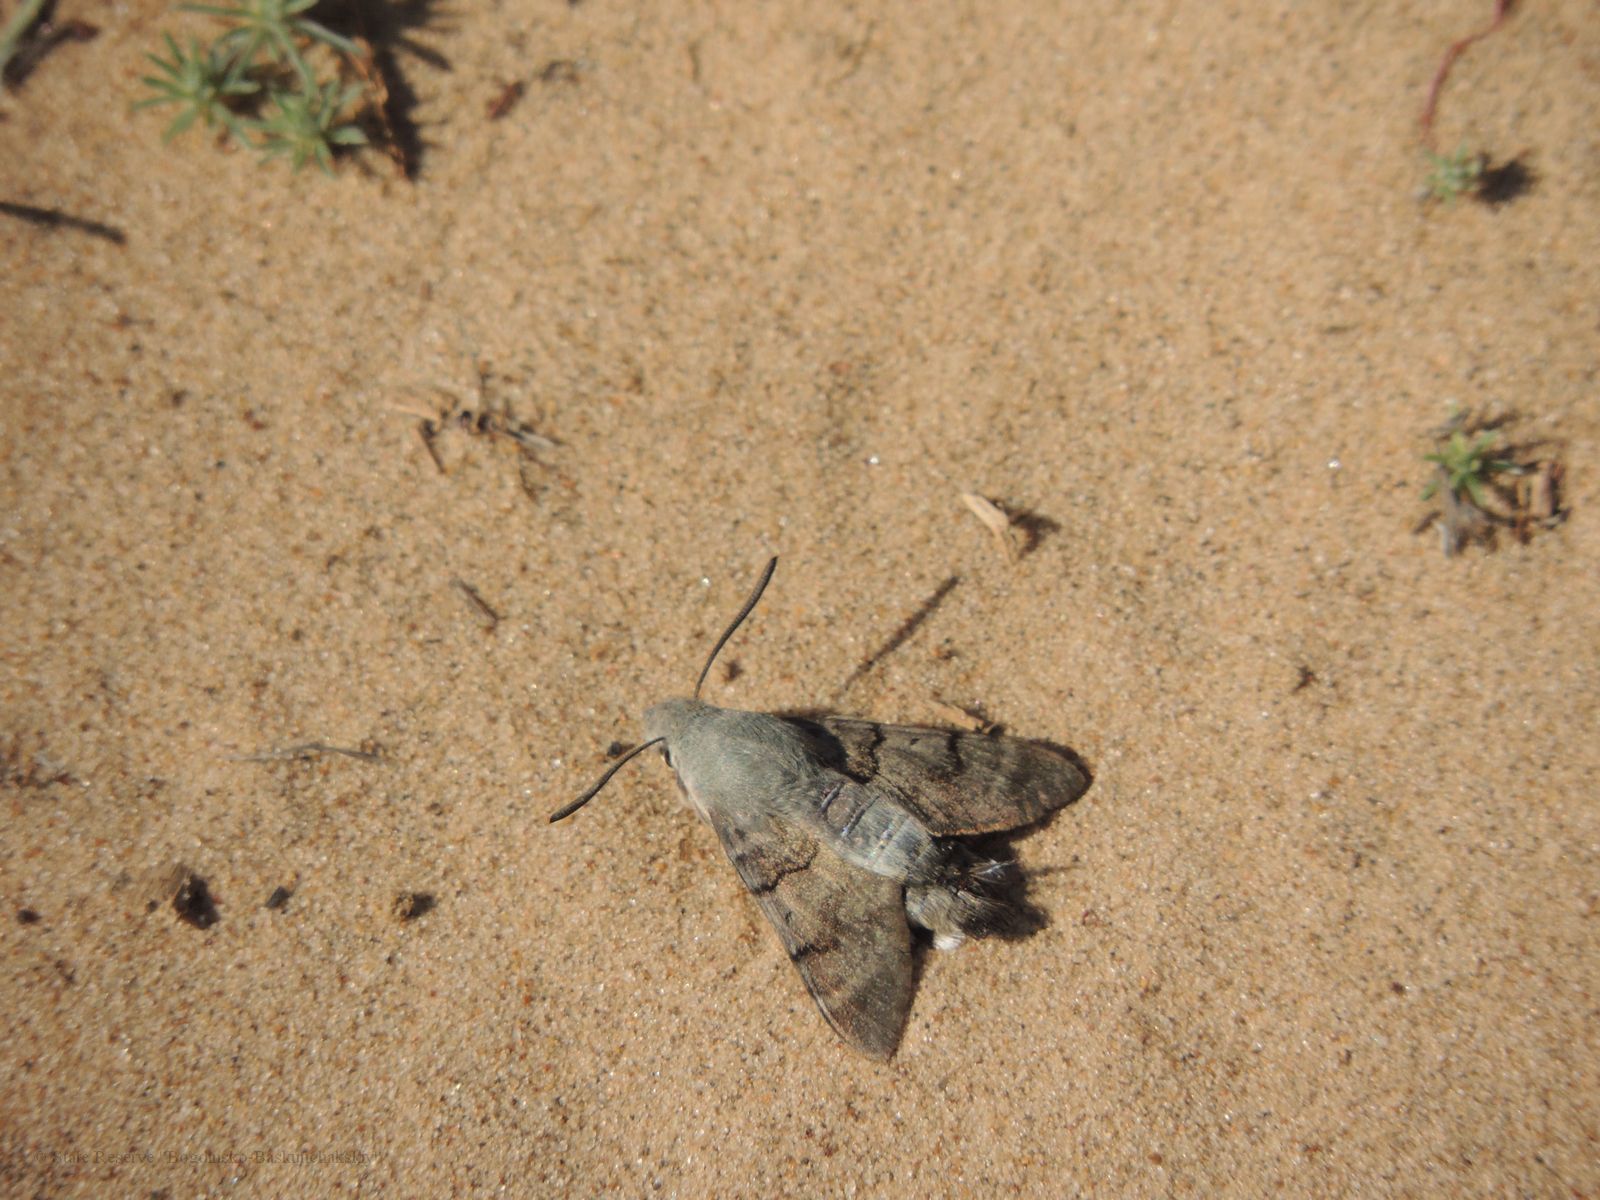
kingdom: Animalia
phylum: Arthropoda
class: Insecta
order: Lepidoptera
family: Sphingidae
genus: Macroglossum
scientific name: Macroglossum stellatarum
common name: Humming-bird hawk-moth
